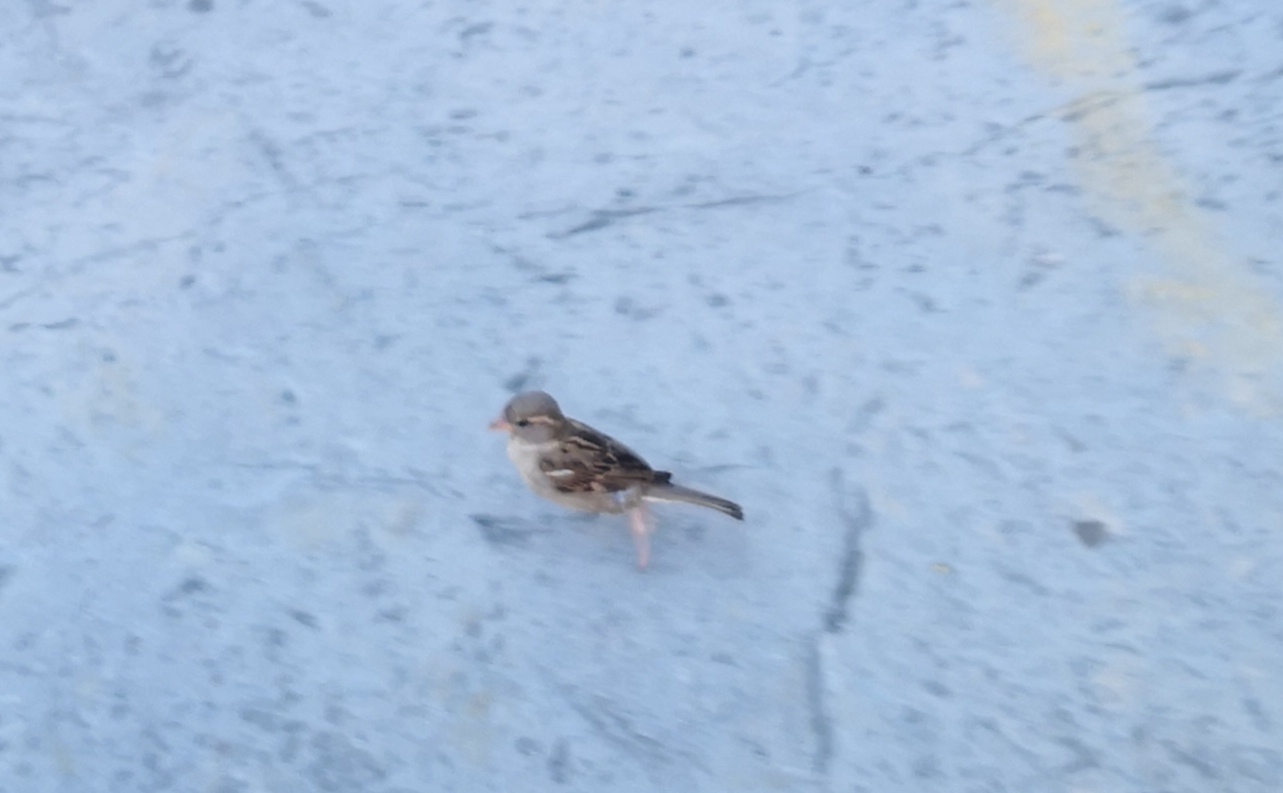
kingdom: Animalia
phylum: Chordata
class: Aves
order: Passeriformes
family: Passeridae
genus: Passer
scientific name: Passer domesticus
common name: House sparrow
